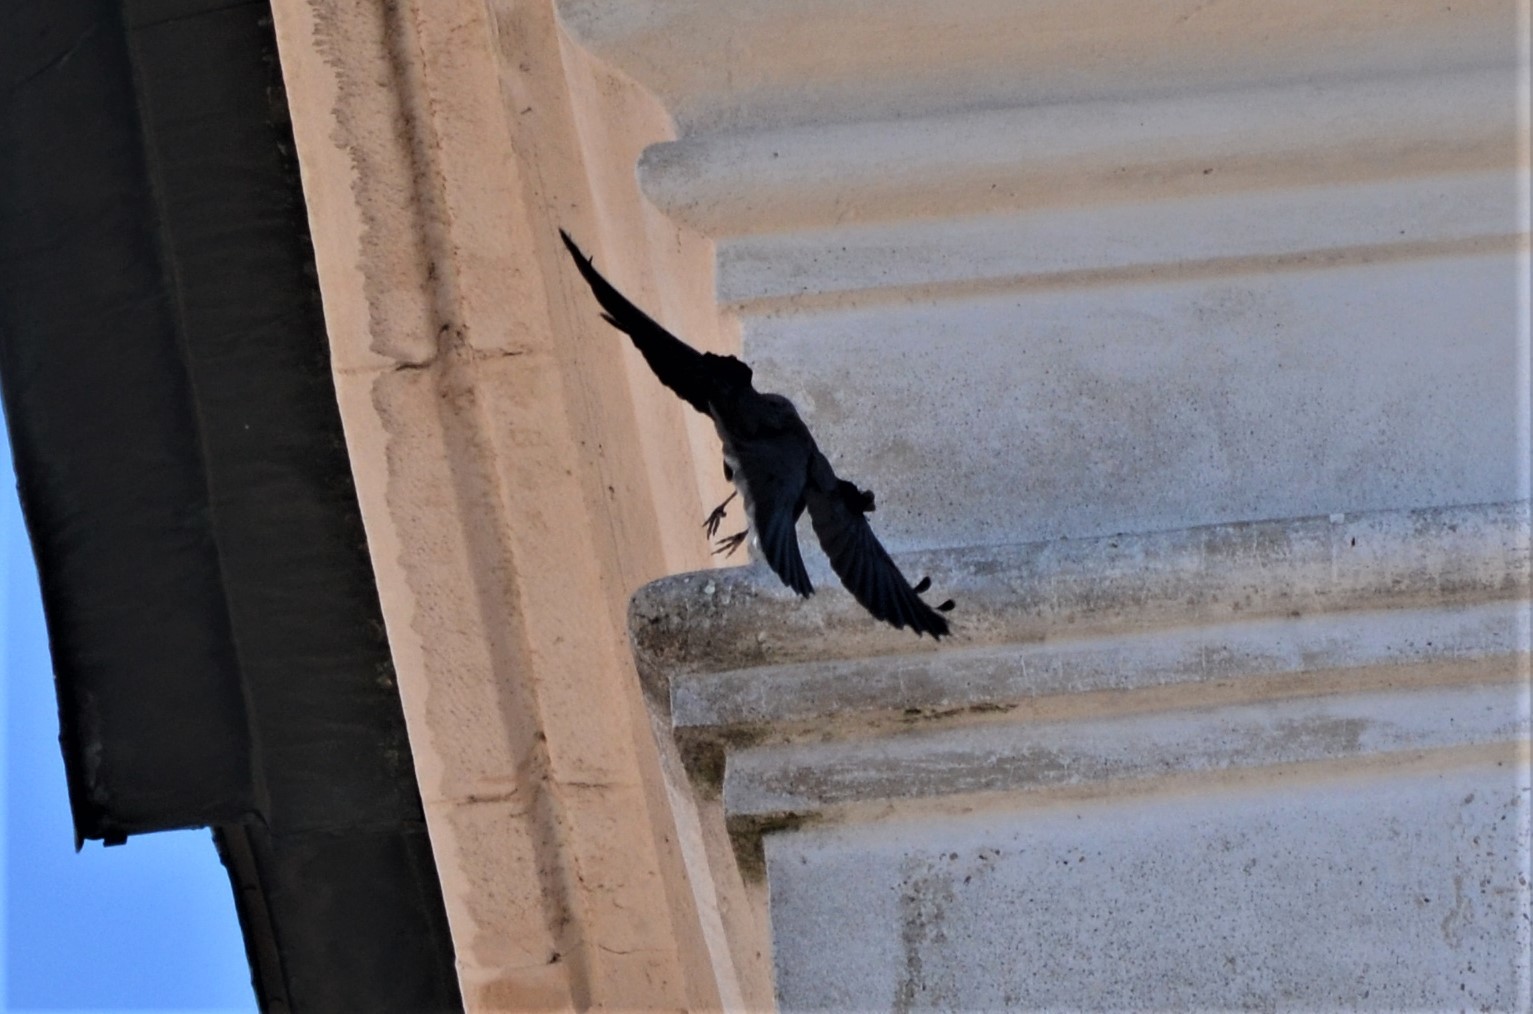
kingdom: Animalia
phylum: Chordata
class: Aves
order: Passeriformes
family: Corvidae
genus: Coloeus
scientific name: Coloeus monedula
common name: Western jackdaw
